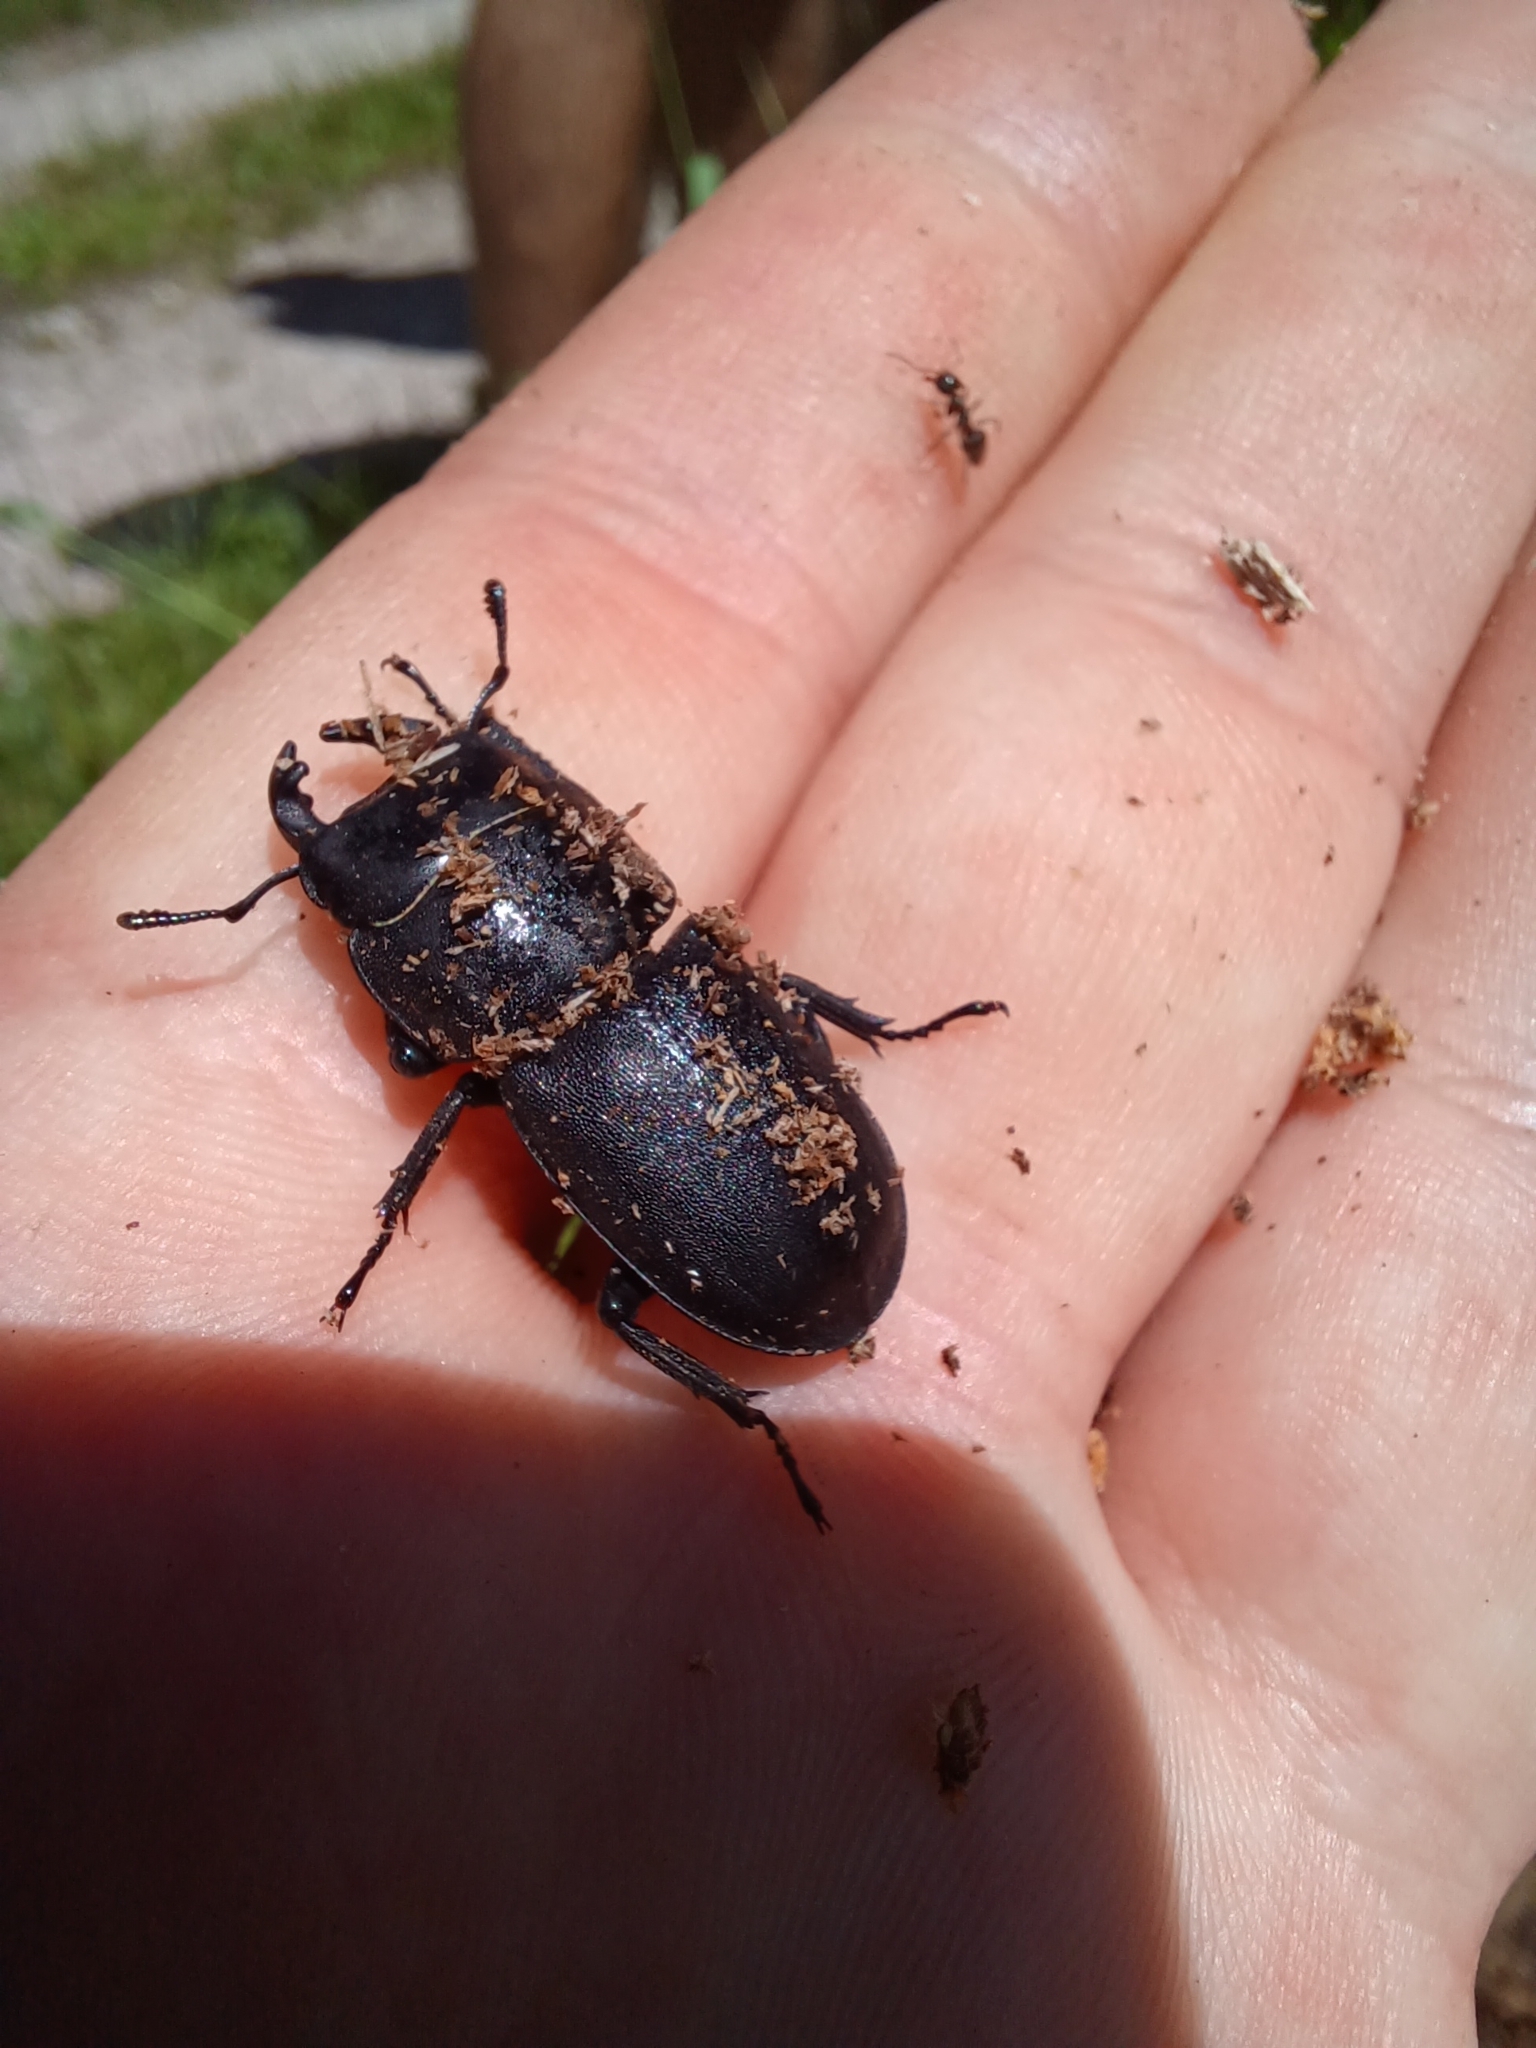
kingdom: Animalia
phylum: Arthropoda
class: Insecta
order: Coleoptera
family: Lucanidae
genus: Dorcus
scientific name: Dorcus parallelipipedus
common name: Lesser stag beetle
